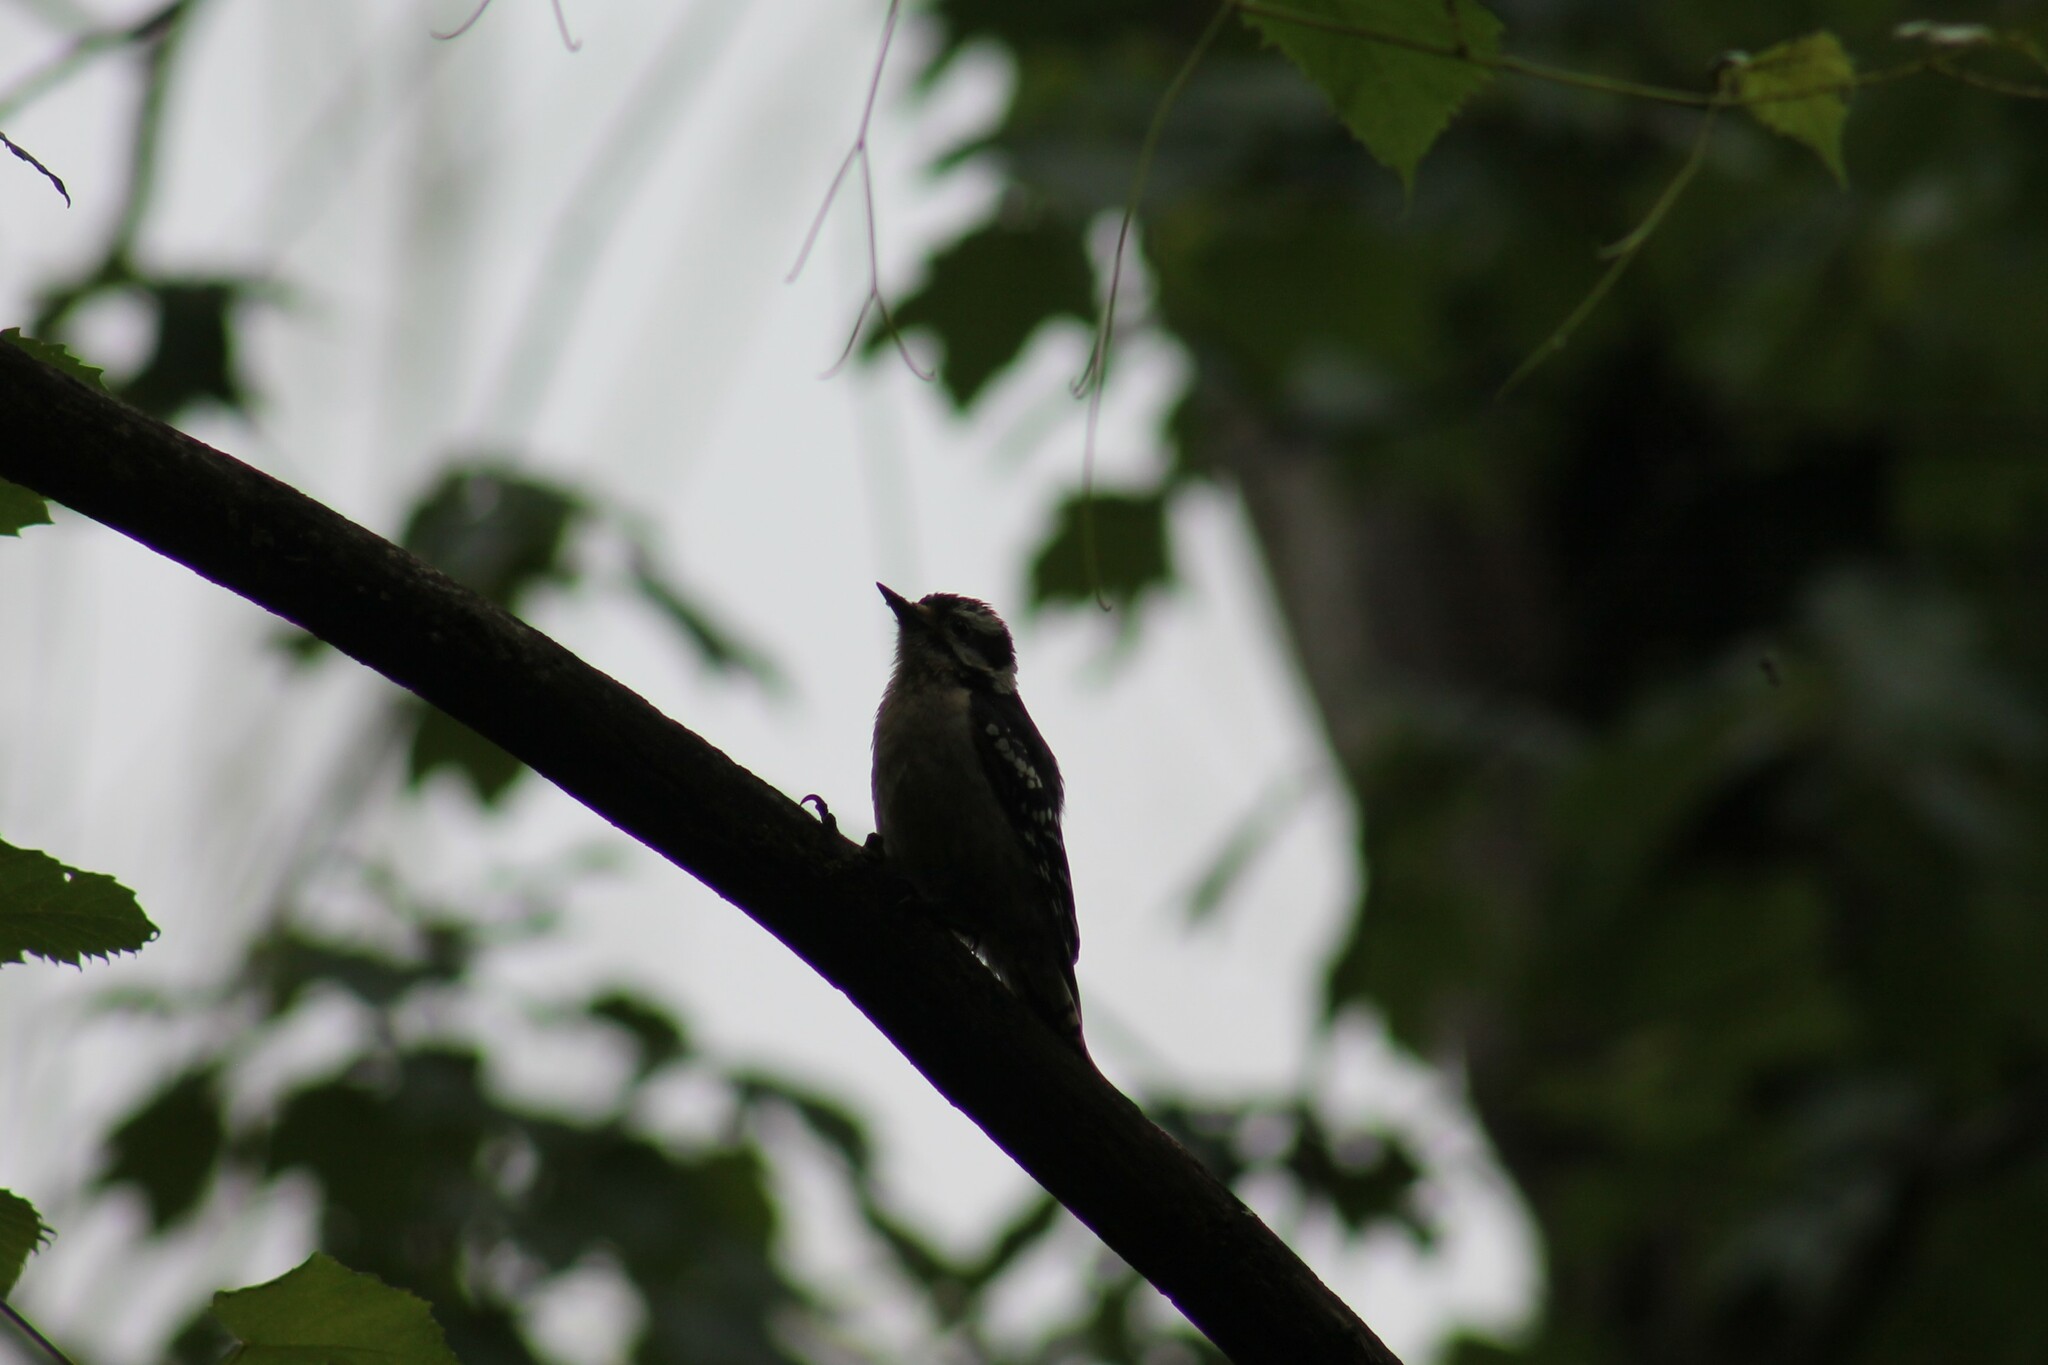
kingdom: Animalia
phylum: Chordata
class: Aves
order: Piciformes
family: Picidae
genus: Dryobates
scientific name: Dryobates pubescens
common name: Downy woodpecker
